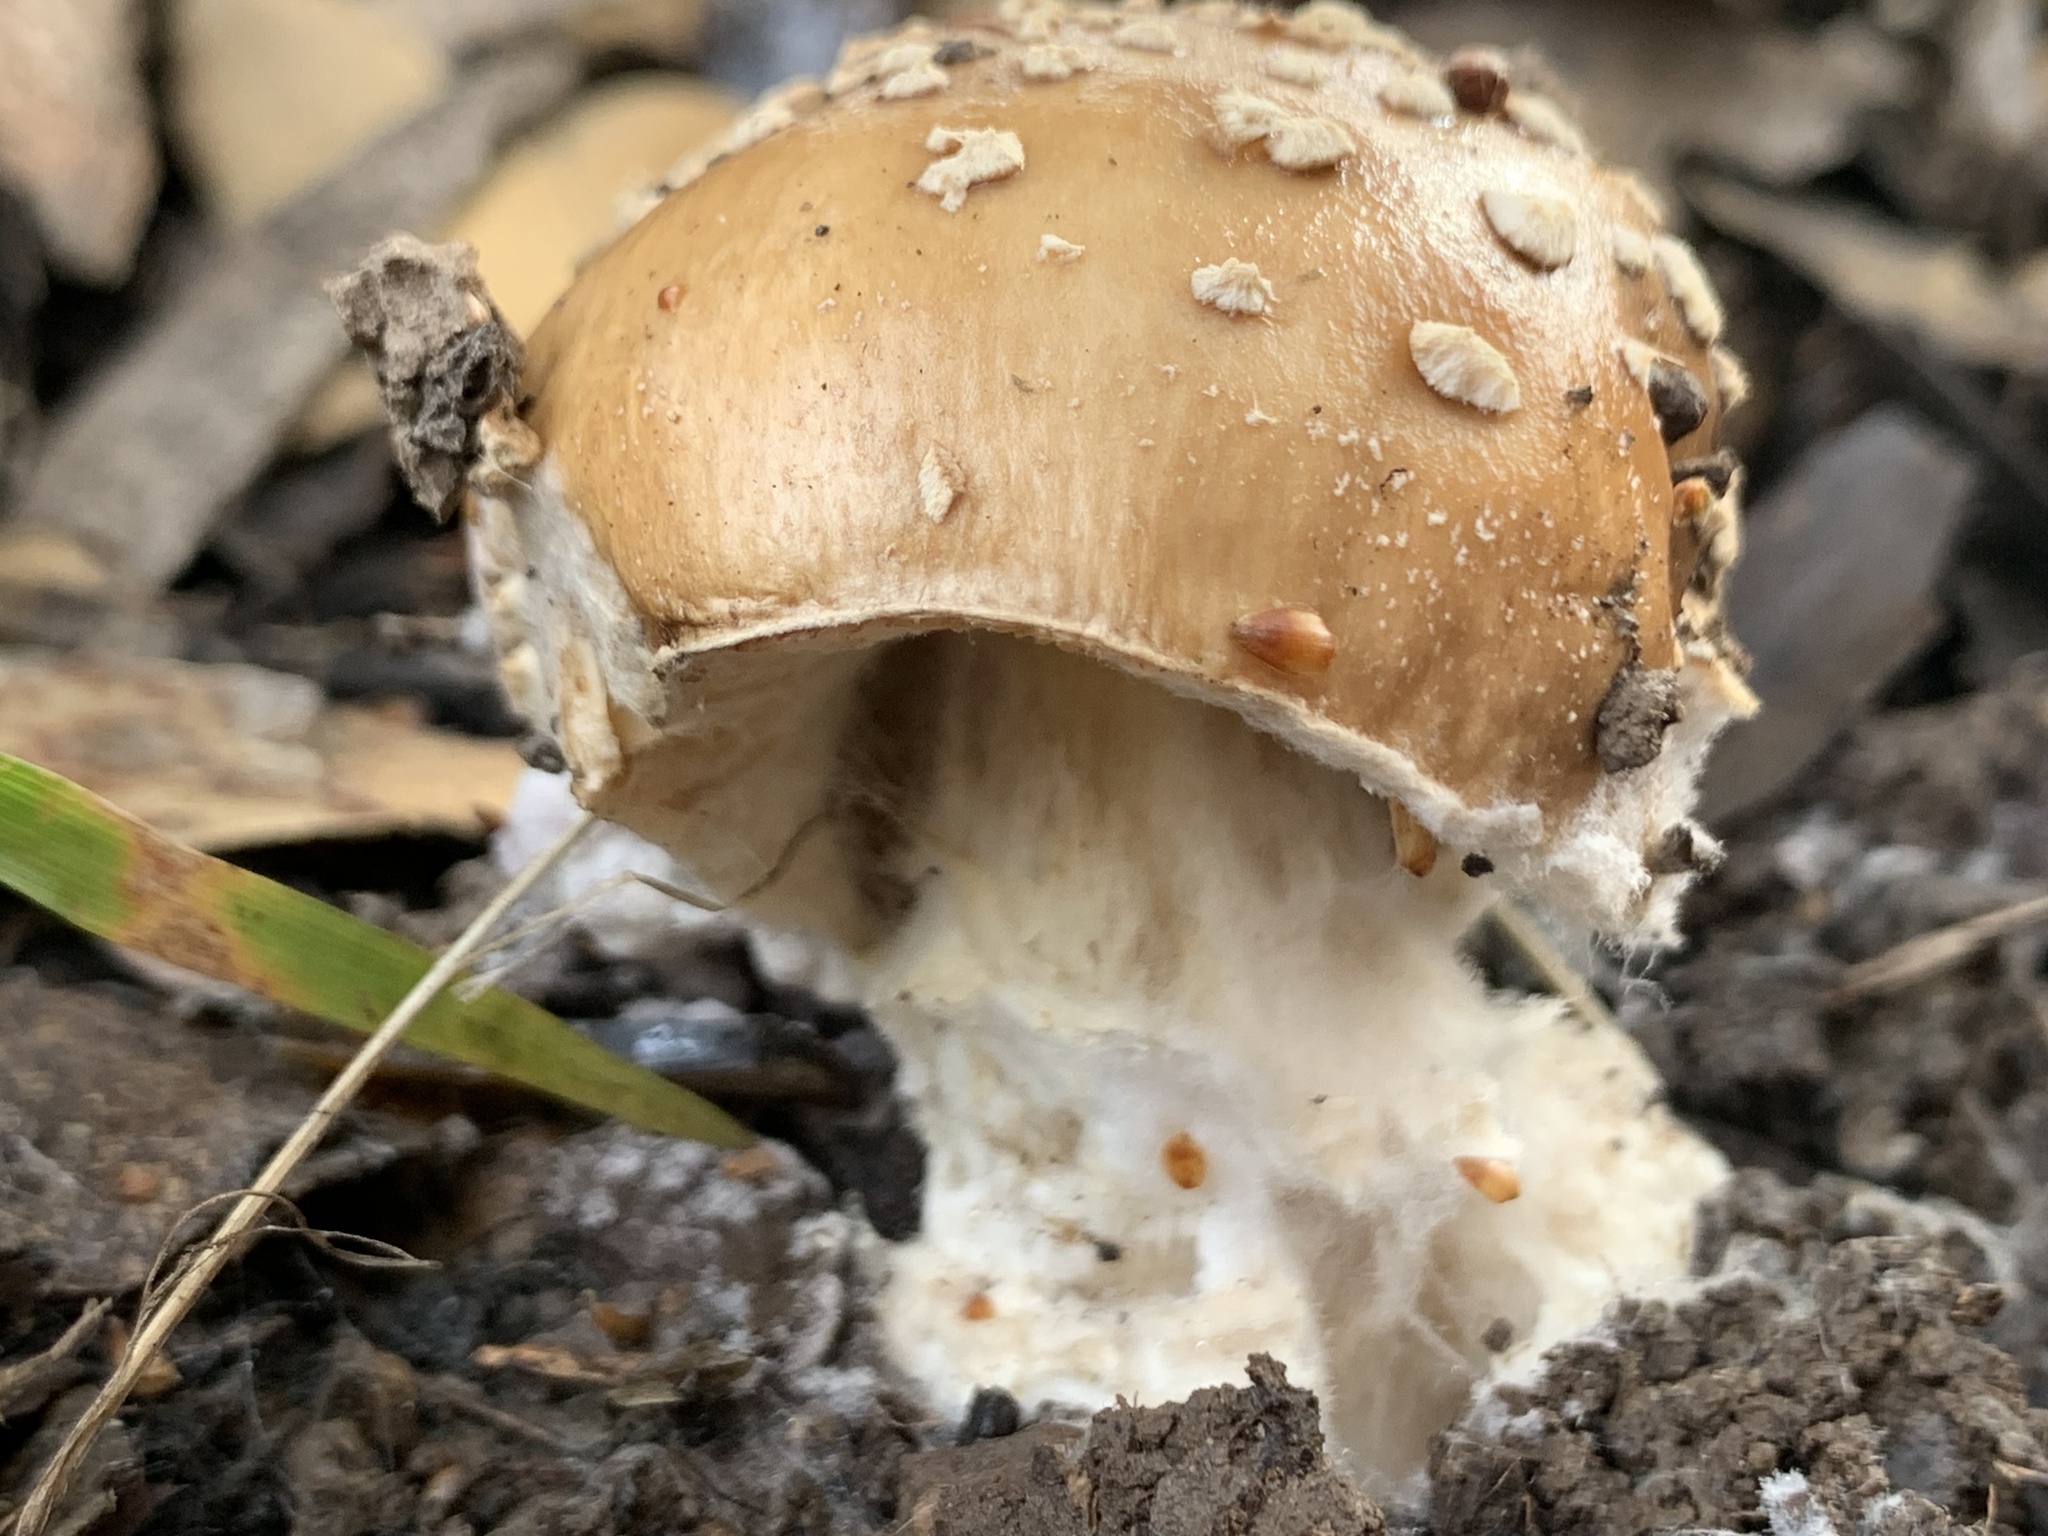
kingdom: Fungi
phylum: Basidiomycota
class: Agaricomycetes
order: Agaricales
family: Amanitaceae
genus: Amanita
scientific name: Amanita pantherinoides
